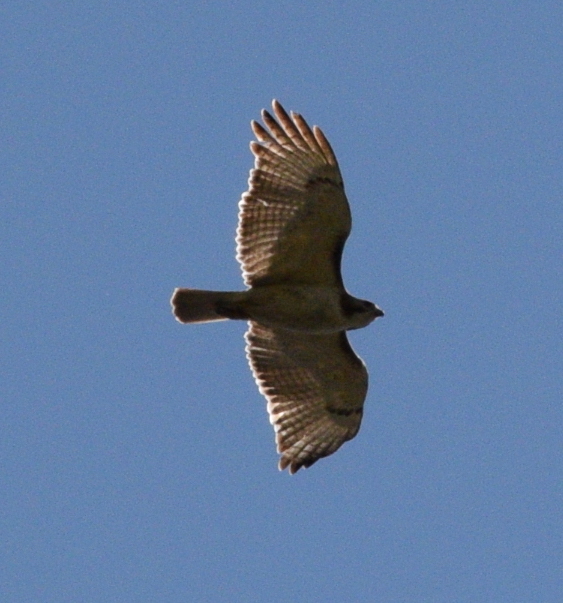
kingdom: Animalia
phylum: Chordata
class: Aves
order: Accipitriformes
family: Accipitridae
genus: Buteo
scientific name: Buteo jamaicensis
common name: Red-tailed hawk
